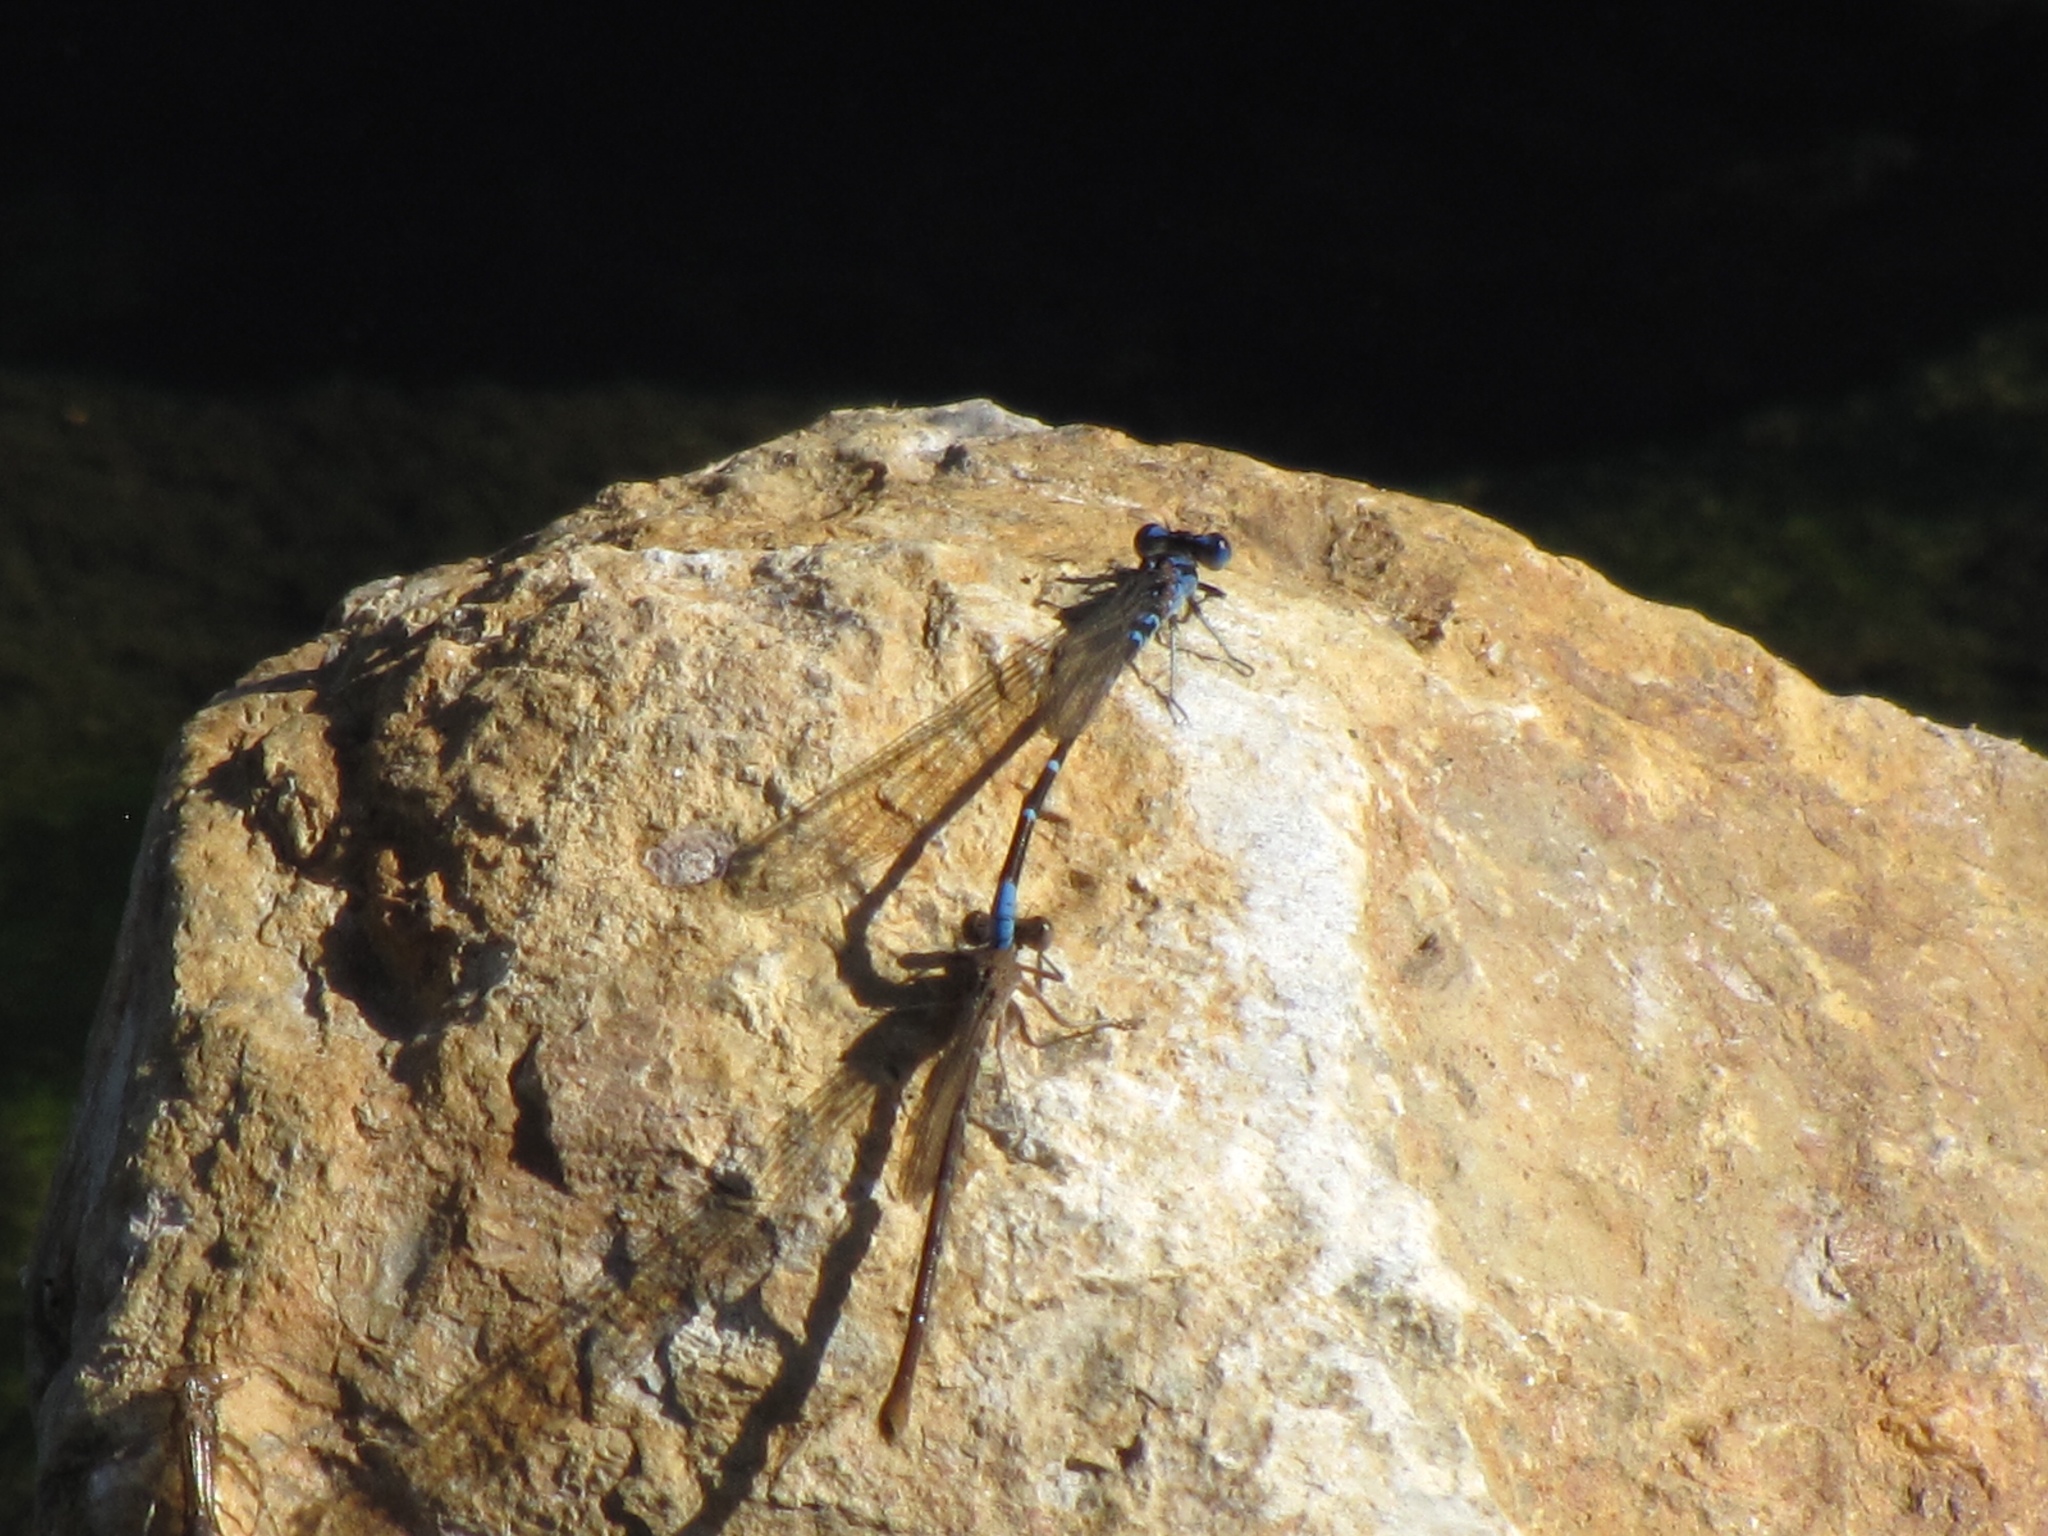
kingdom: Animalia
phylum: Arthropoda
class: Insecta
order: Odonata
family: Coenagrionidae
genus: Argia
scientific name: Argia sedula
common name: Blue-ringed dancer
